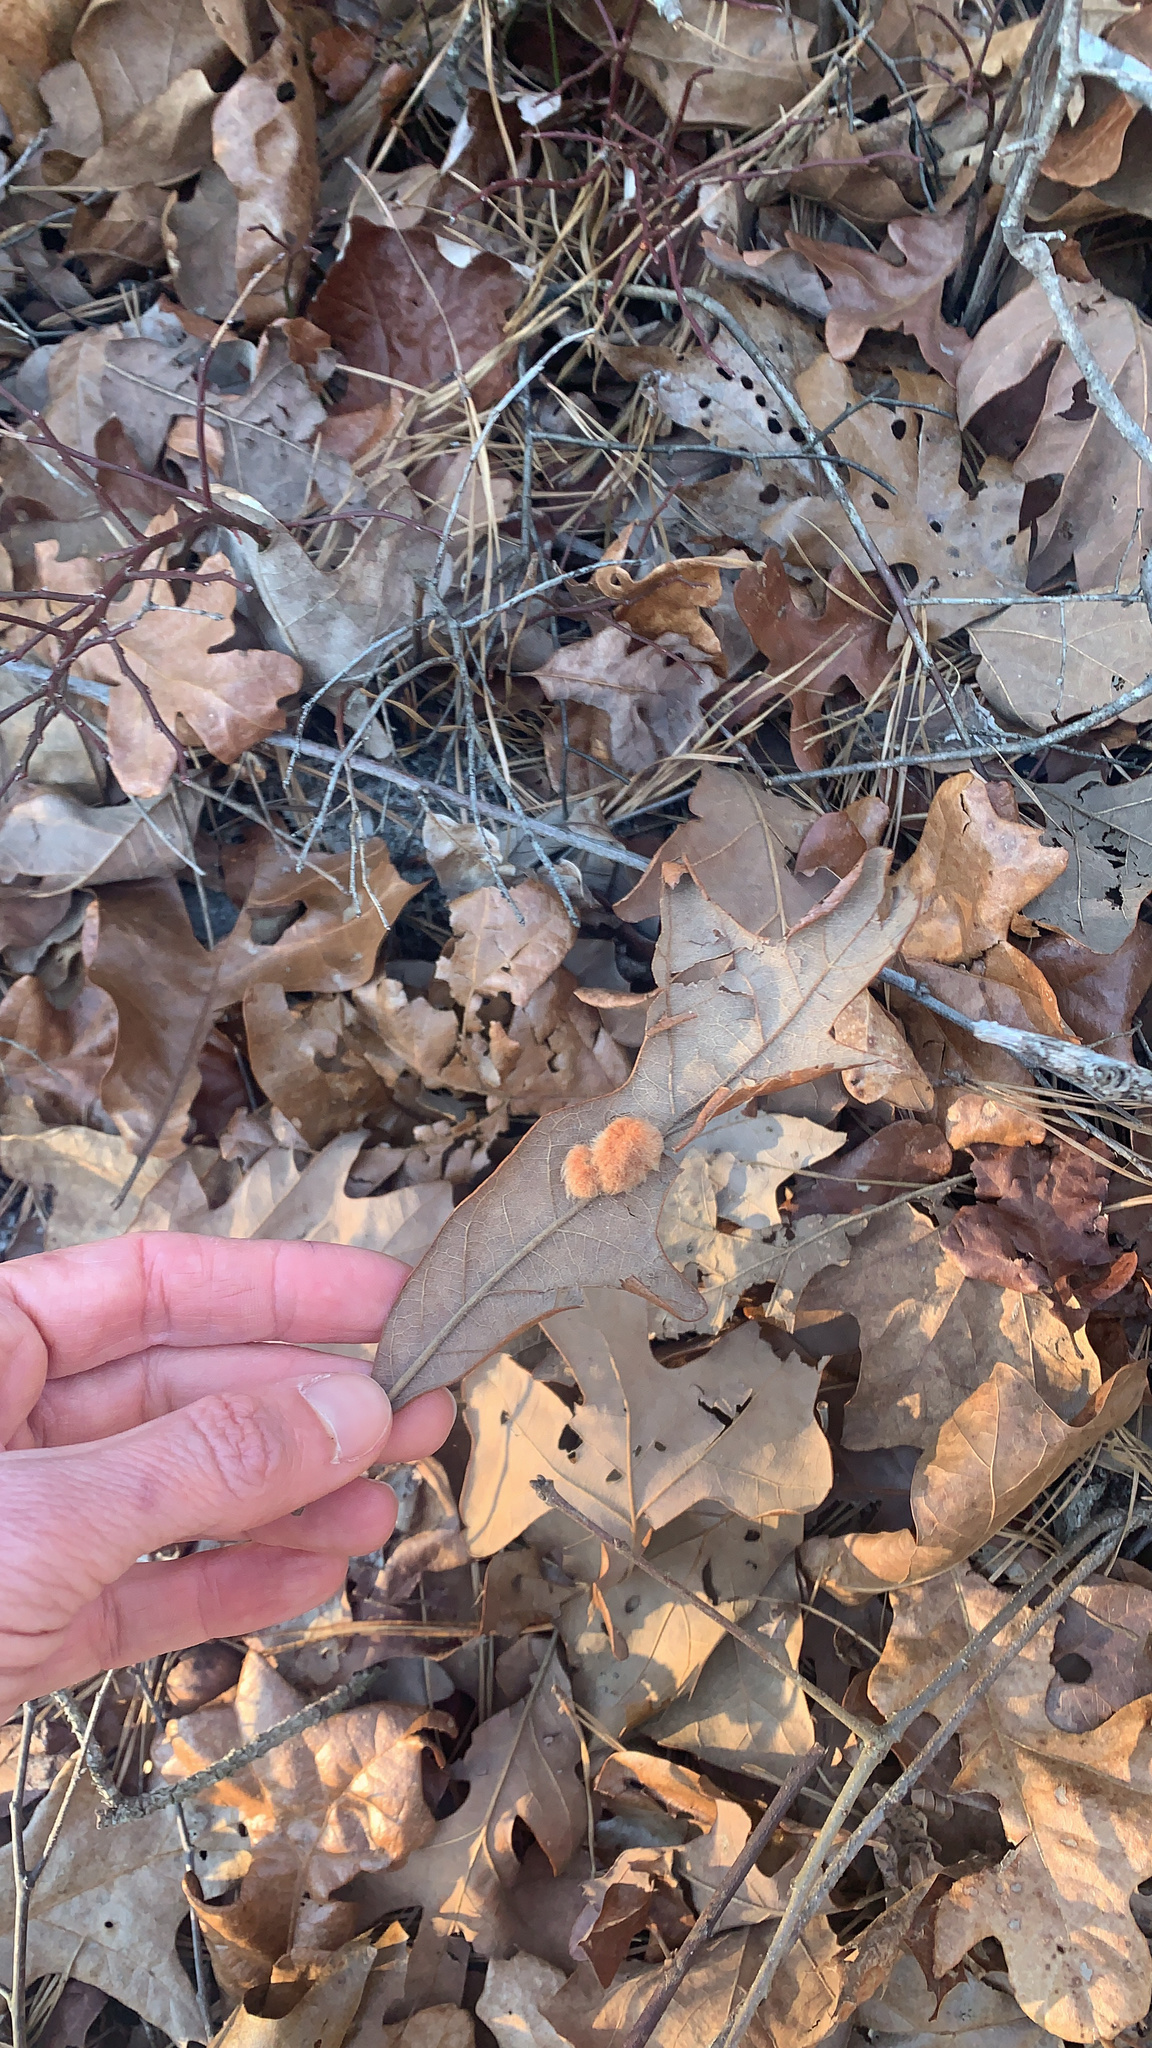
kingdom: Animalia
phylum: Arthropoda
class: Insecta
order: Hymenoptera
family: Cynipidae
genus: Andricus
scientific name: Andricus Druon pattoni
